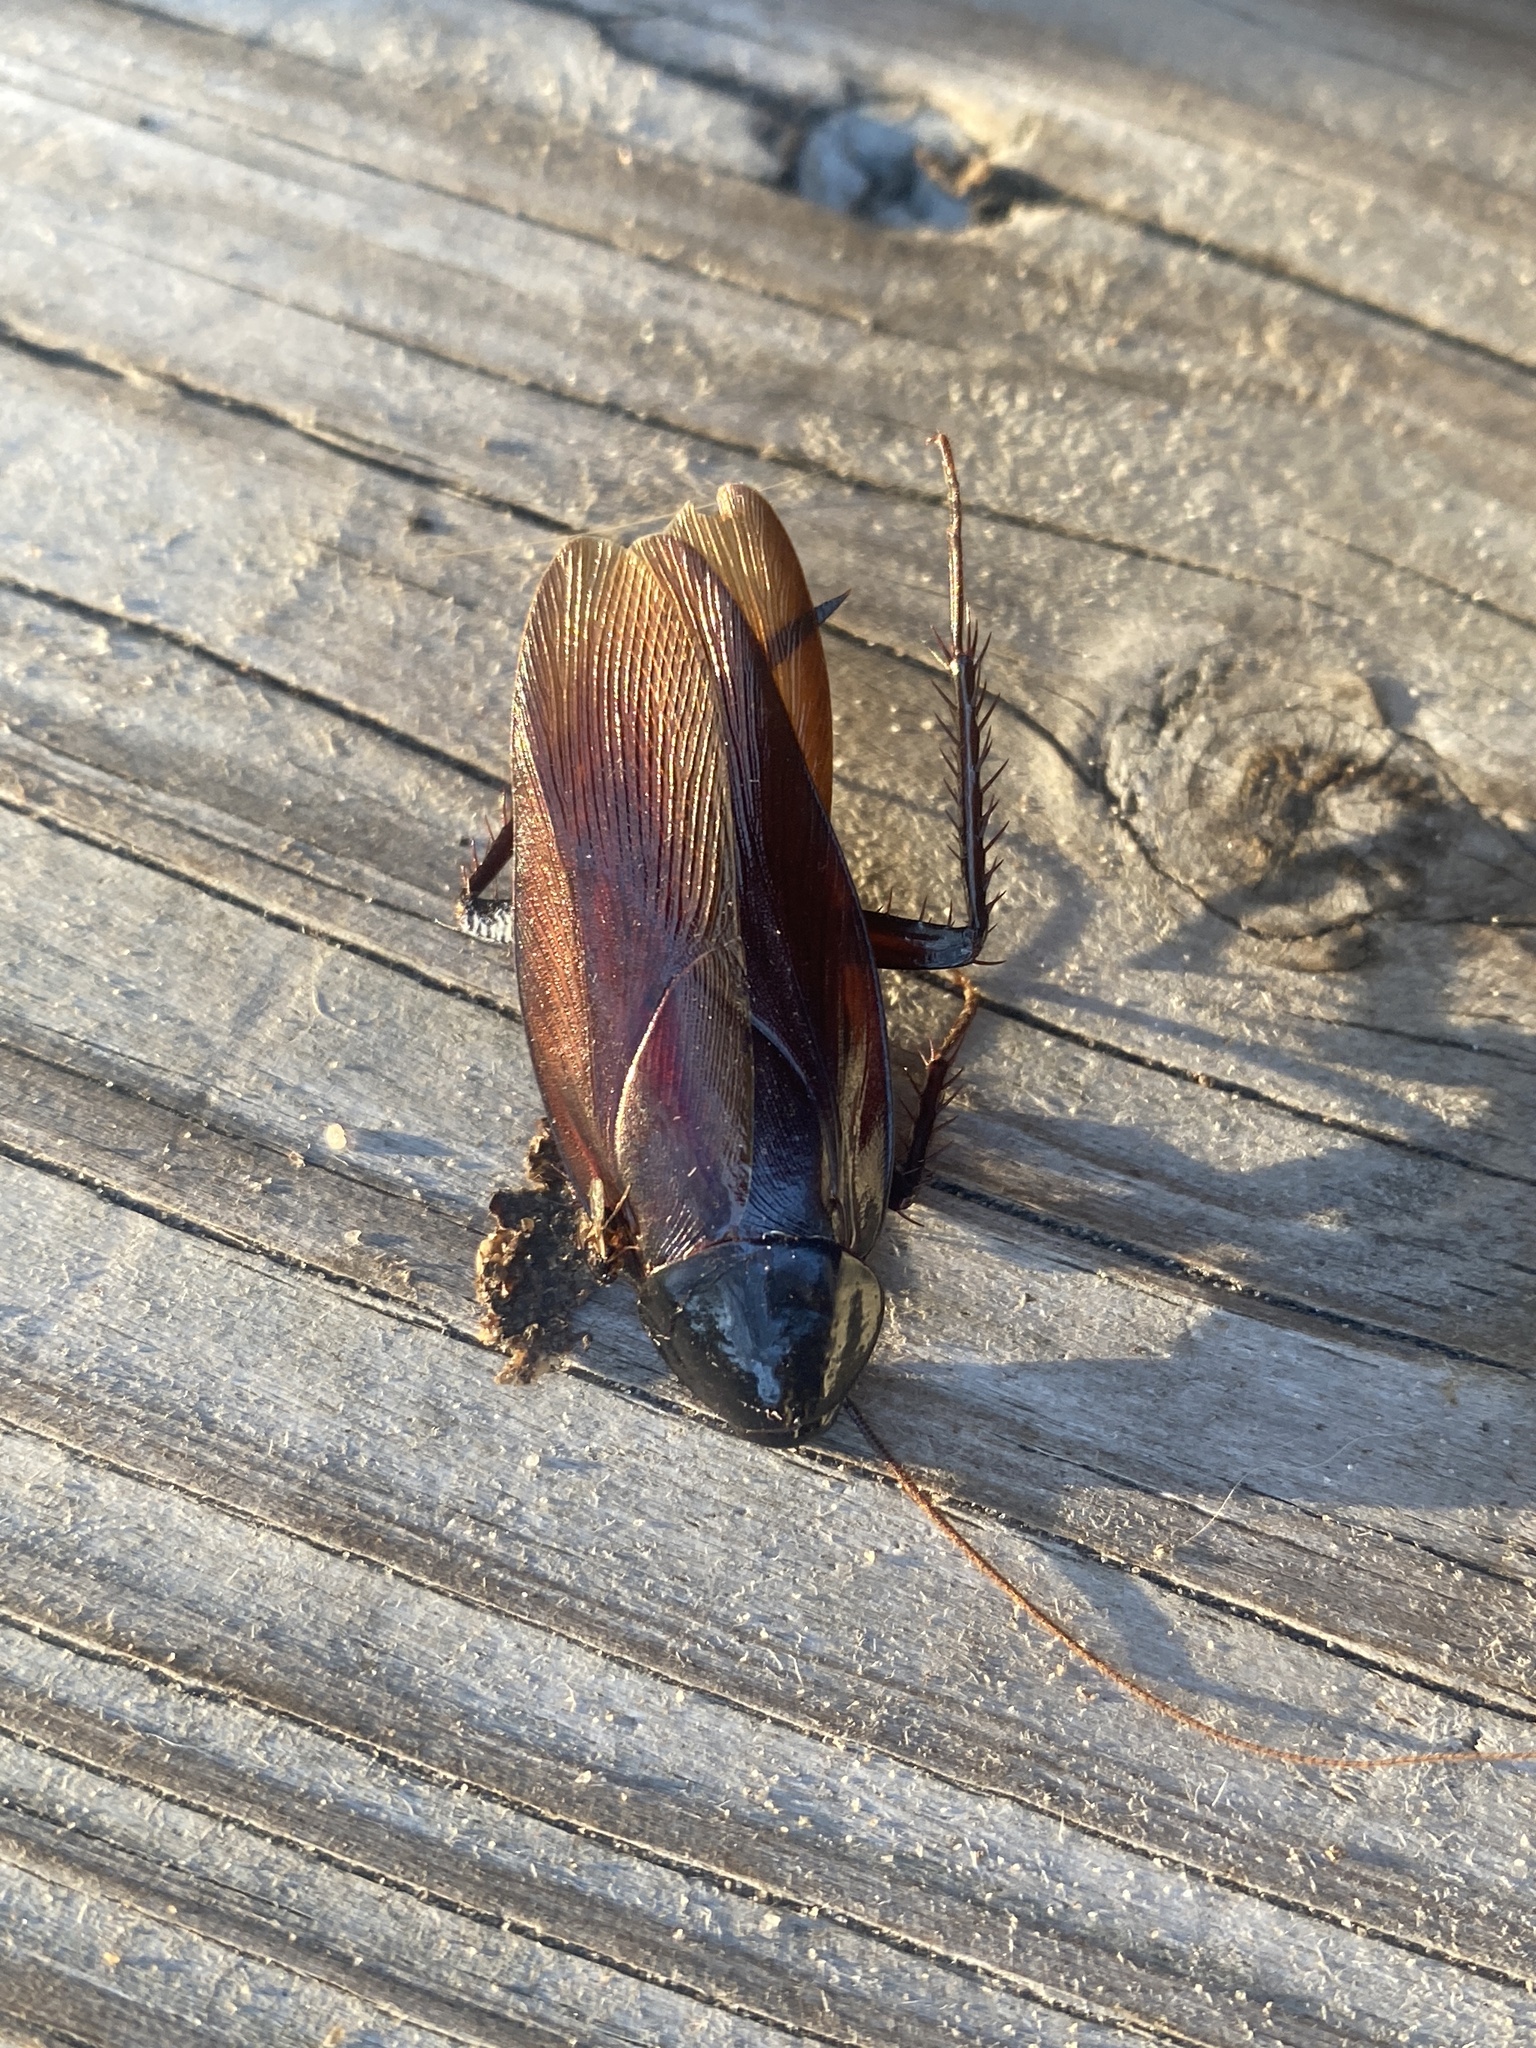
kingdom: Animalia
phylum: Arthropoda
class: Insecta
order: Blattodea
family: Blattidae
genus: Periplaneta
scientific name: Periplaneta fuliginosa
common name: Smokeybrown cockroad
